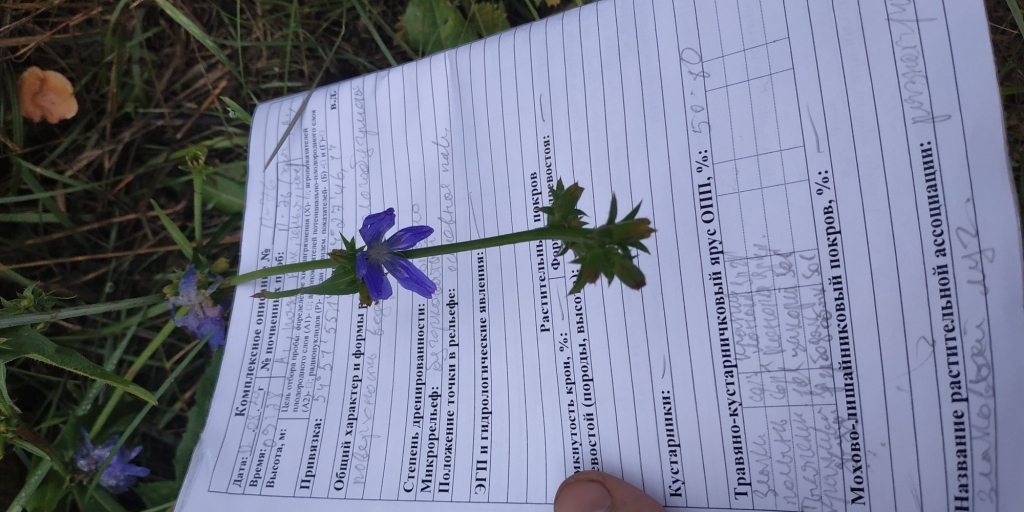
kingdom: Plantae
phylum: Tracheophyta
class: Magnoliopsida
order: Asterales
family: Asteraceae
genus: Cichorium
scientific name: Cichorium intybus
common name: Chicory
